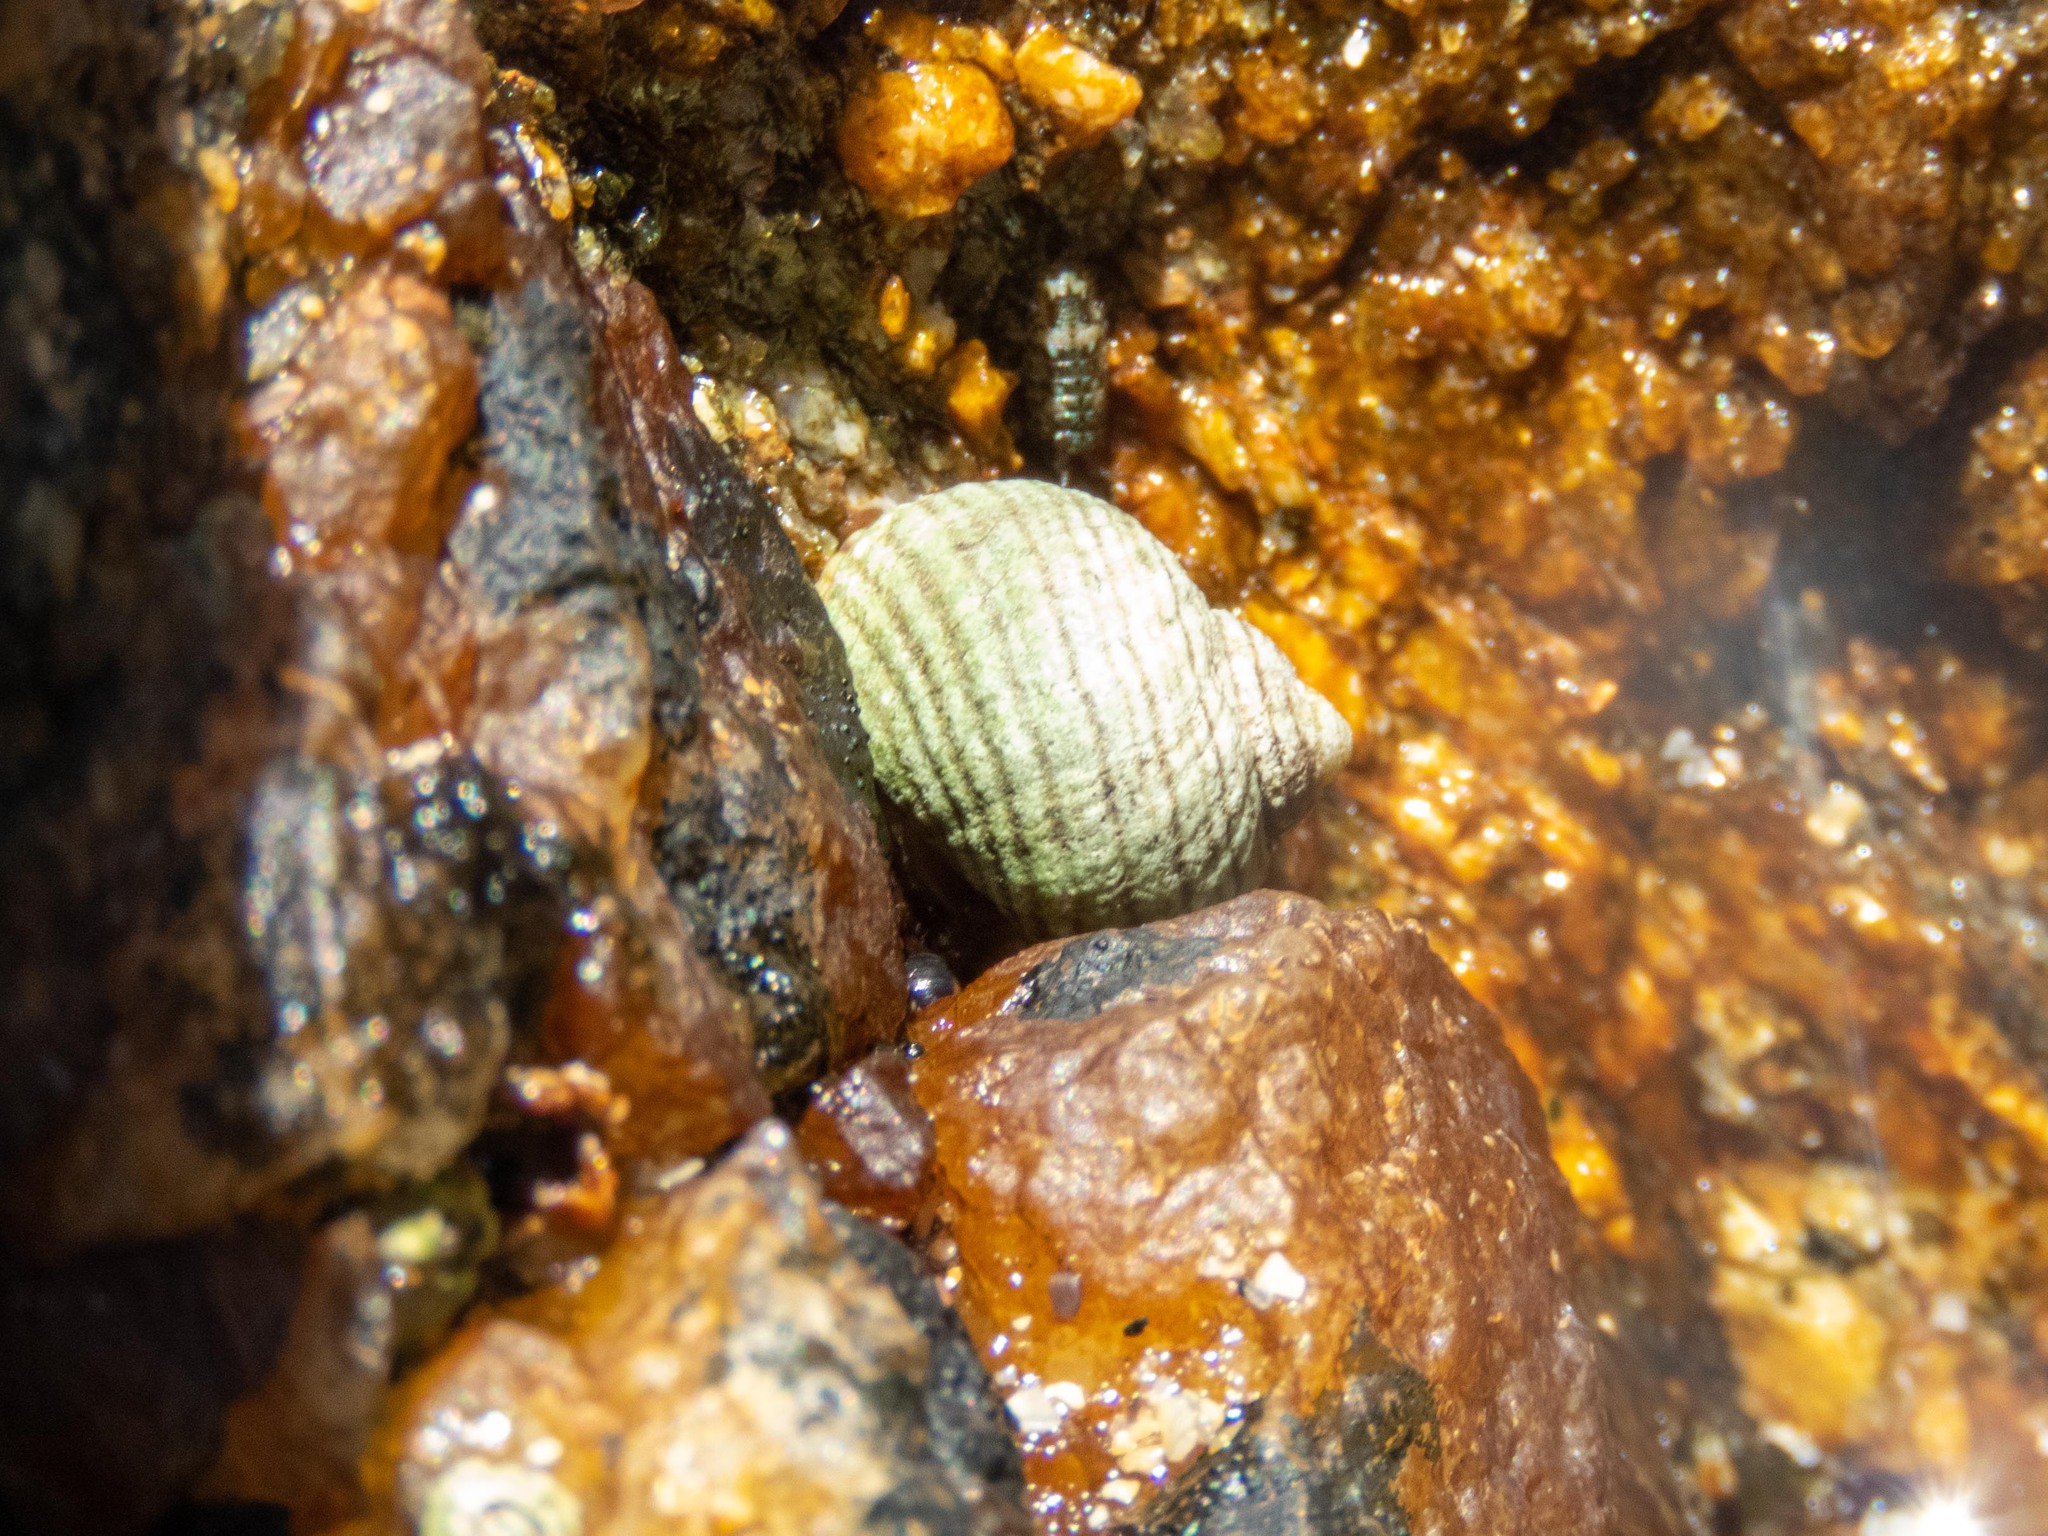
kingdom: Animalia
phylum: Mollusca
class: Gastropoda
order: Littorinimorpha
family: Littorinidae
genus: Littorina
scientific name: Littorina saxatilis
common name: Black-lined periwinkle
